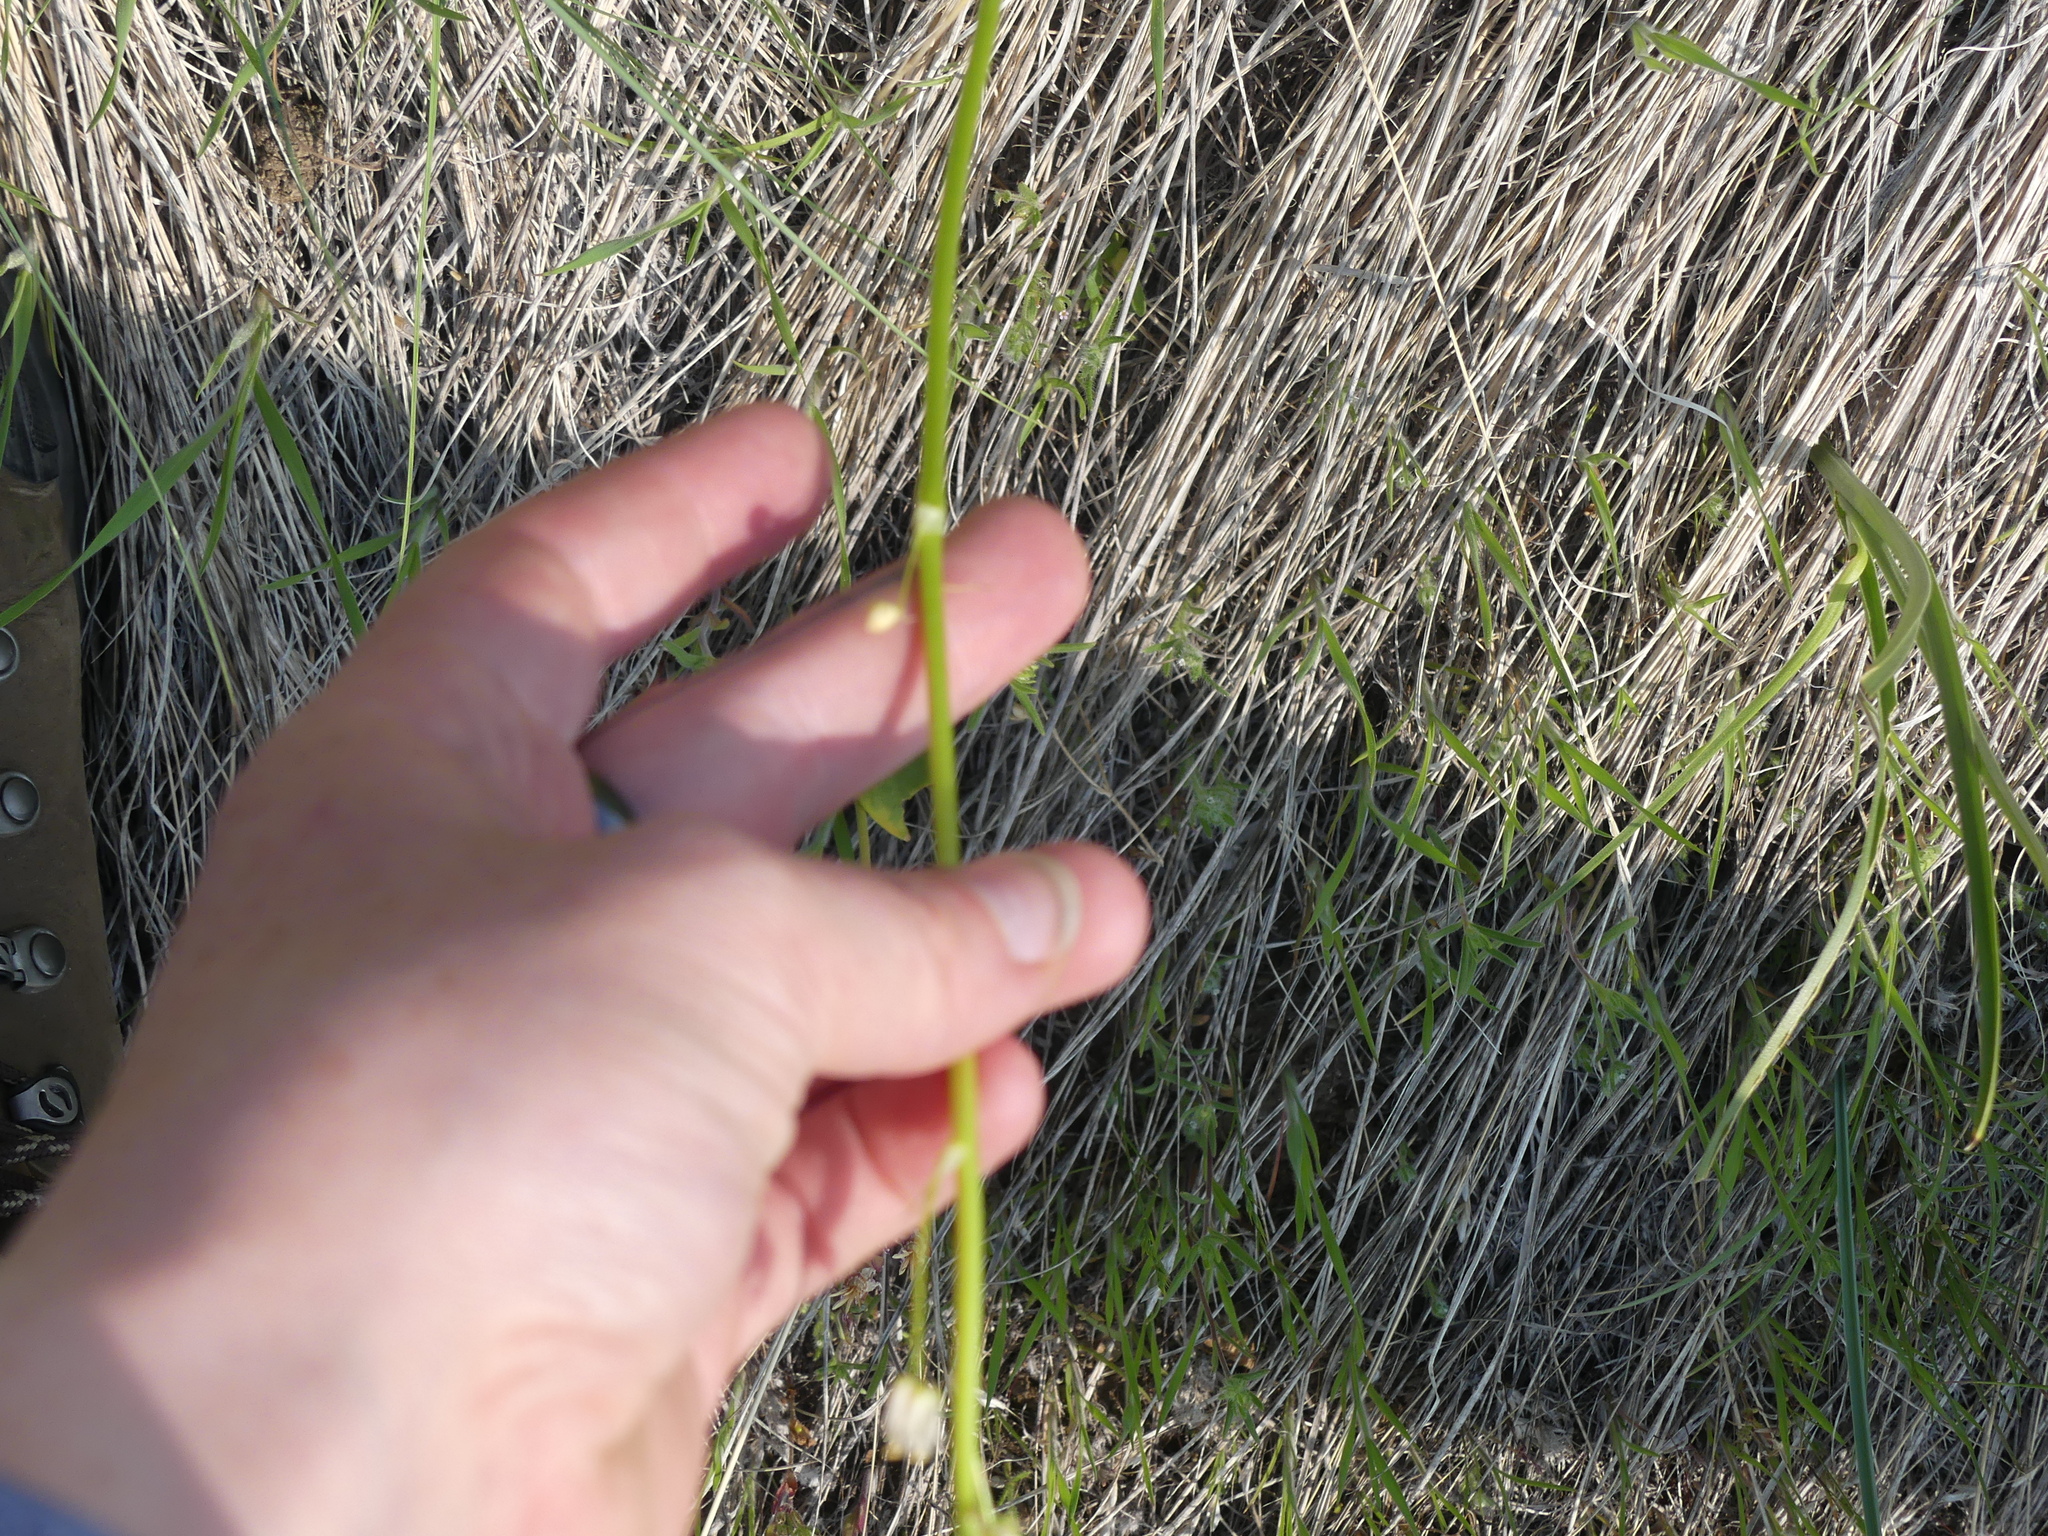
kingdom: Plantae
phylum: Tracheophyta
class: Liliopsida
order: Liliales
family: Melanthiaceae
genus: Toxicoscordion
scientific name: Toxicoscordion venenosum
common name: Meadow death camas
